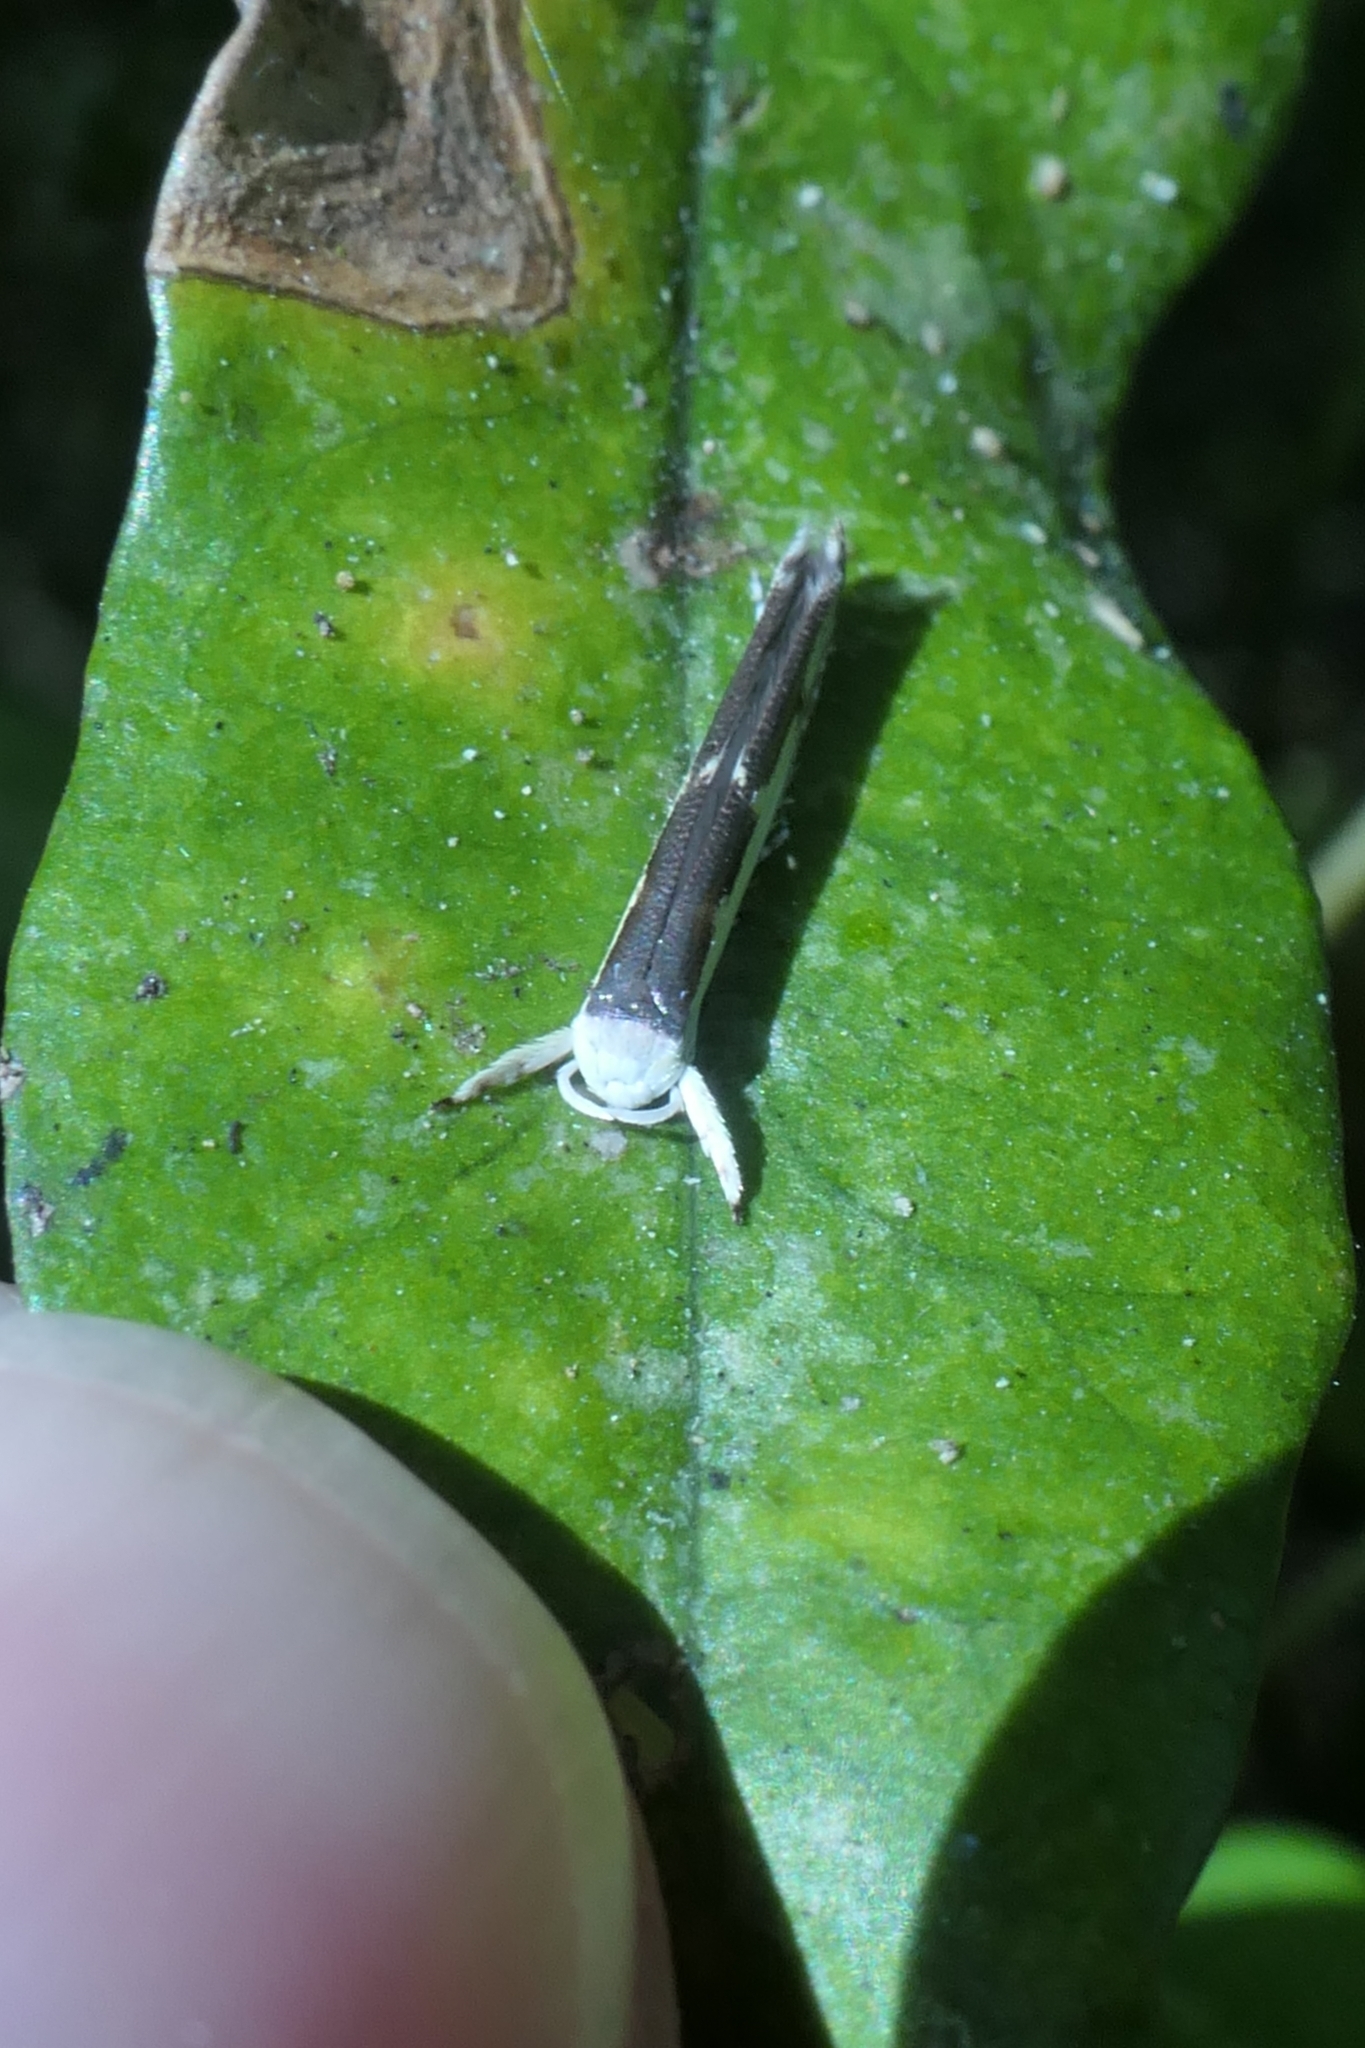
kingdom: Animalia
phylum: Arthropoda
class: Insecta
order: Lepidoptera
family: Roeslerstammiidae
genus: Vanicela
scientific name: Vanicela disjunctella
